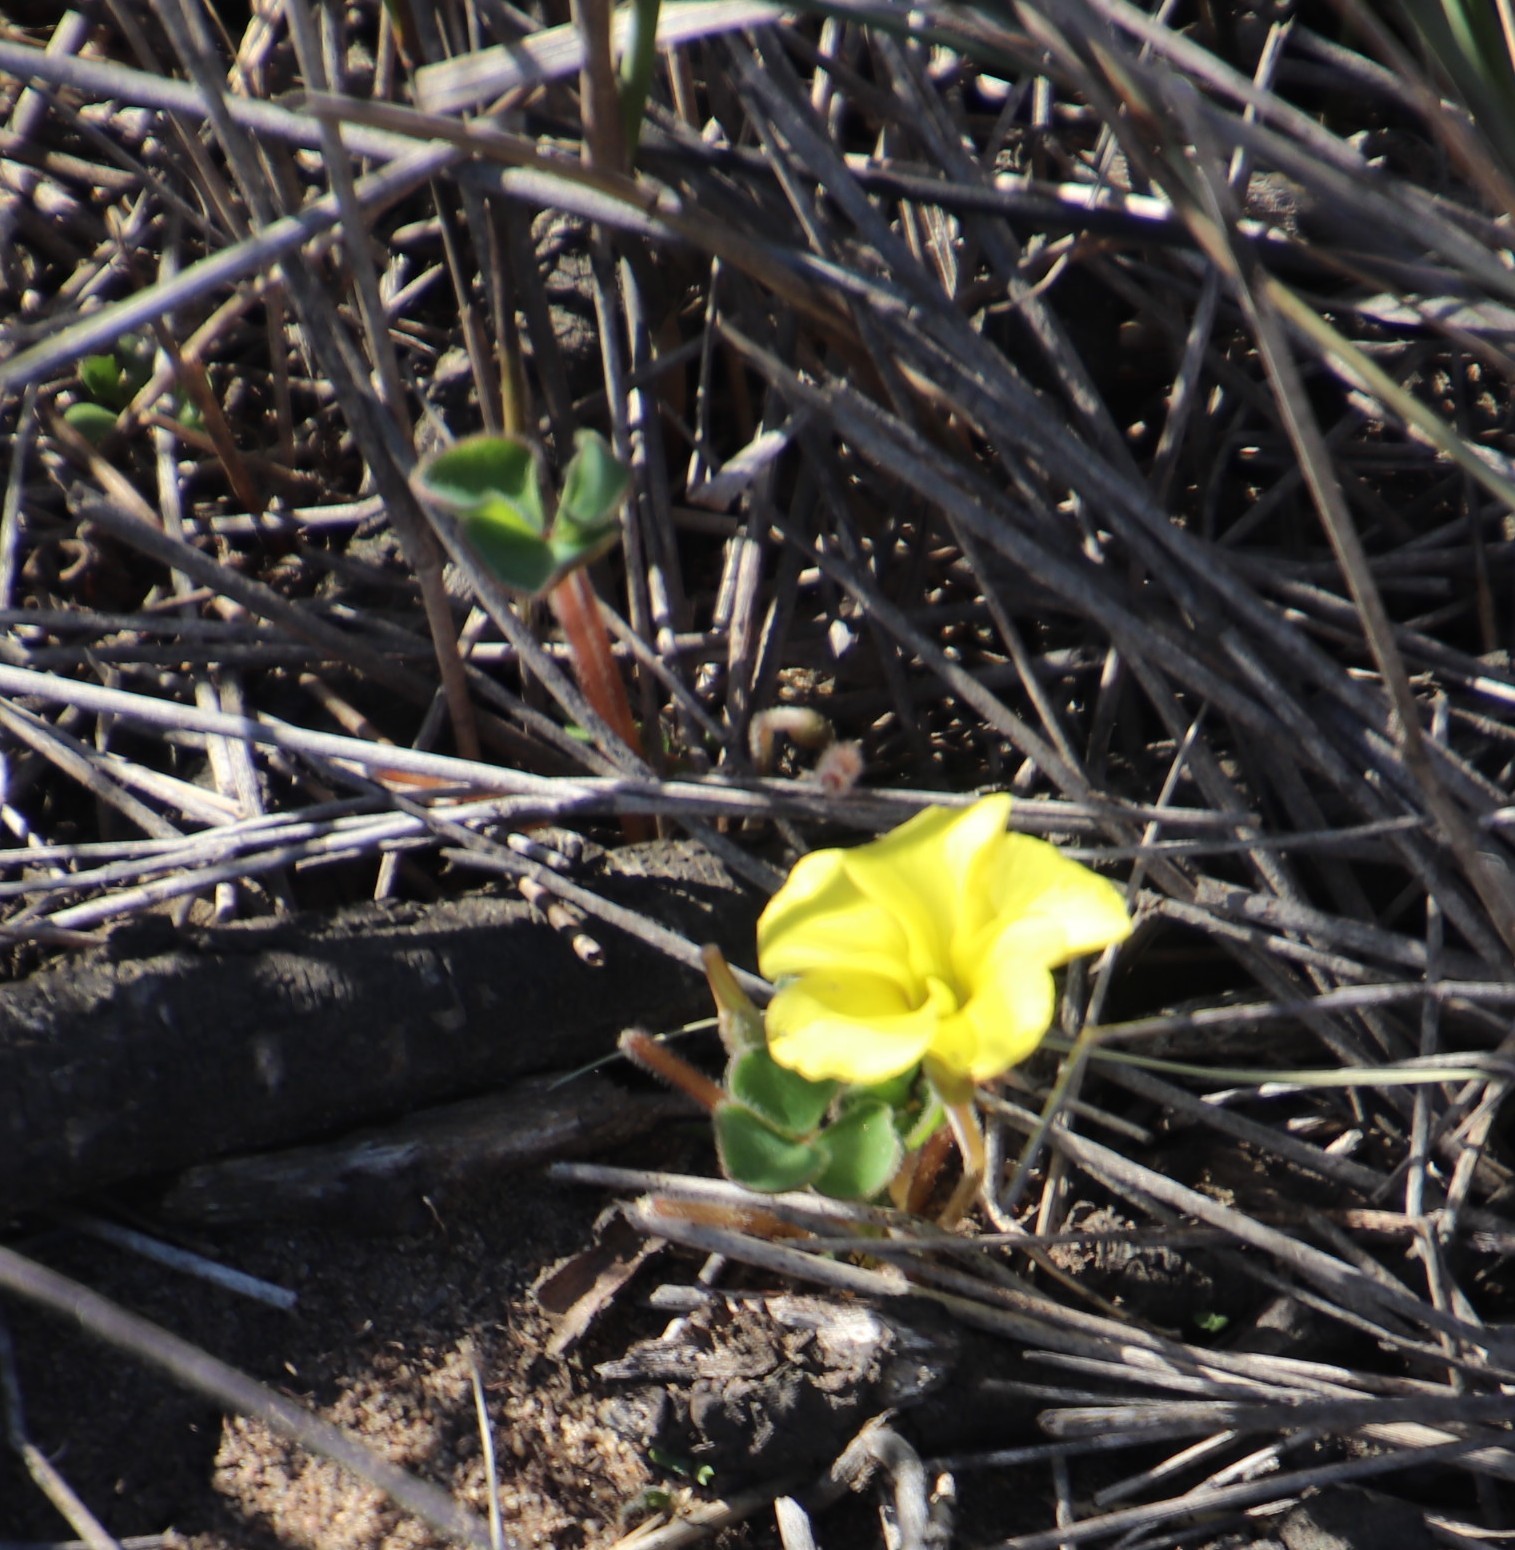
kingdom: Plantae
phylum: Tracheophyta
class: Magnoliopsida
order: Oxalidales
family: Oxalidaceae
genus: Oxalis
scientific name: Oxalis luteola
